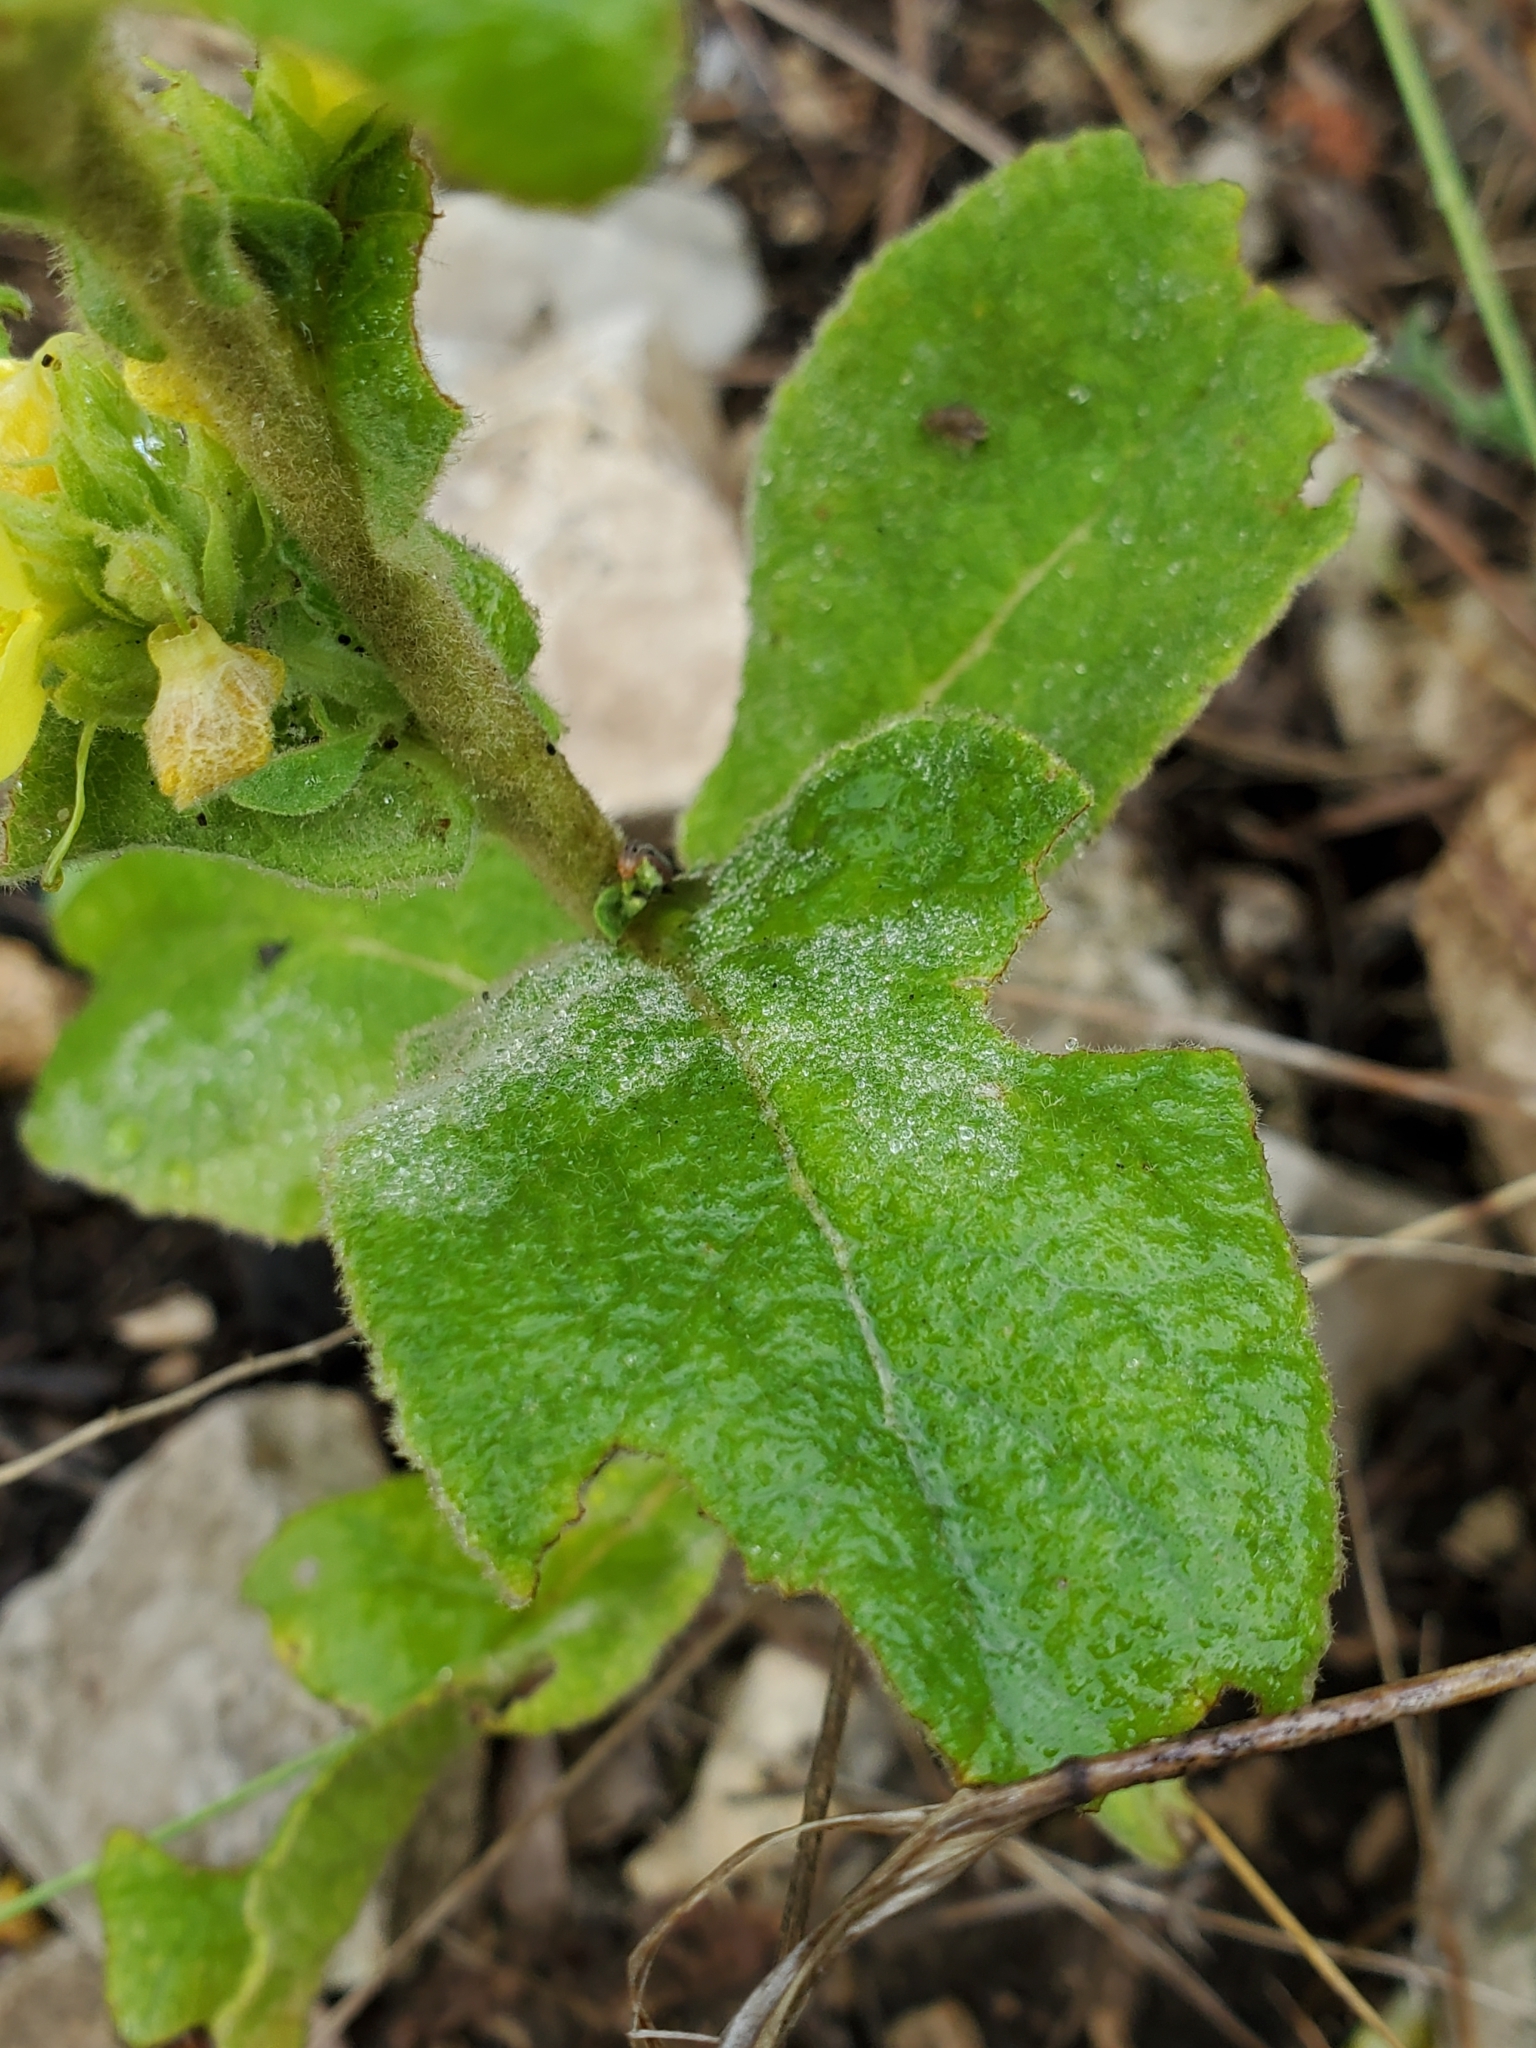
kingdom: Plantae
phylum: Tracheophyta
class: Magnoliopsida
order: Lamiales
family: Scrophulariaceae
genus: Verbascum
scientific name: Verbascum thapsus
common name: Common mullein
